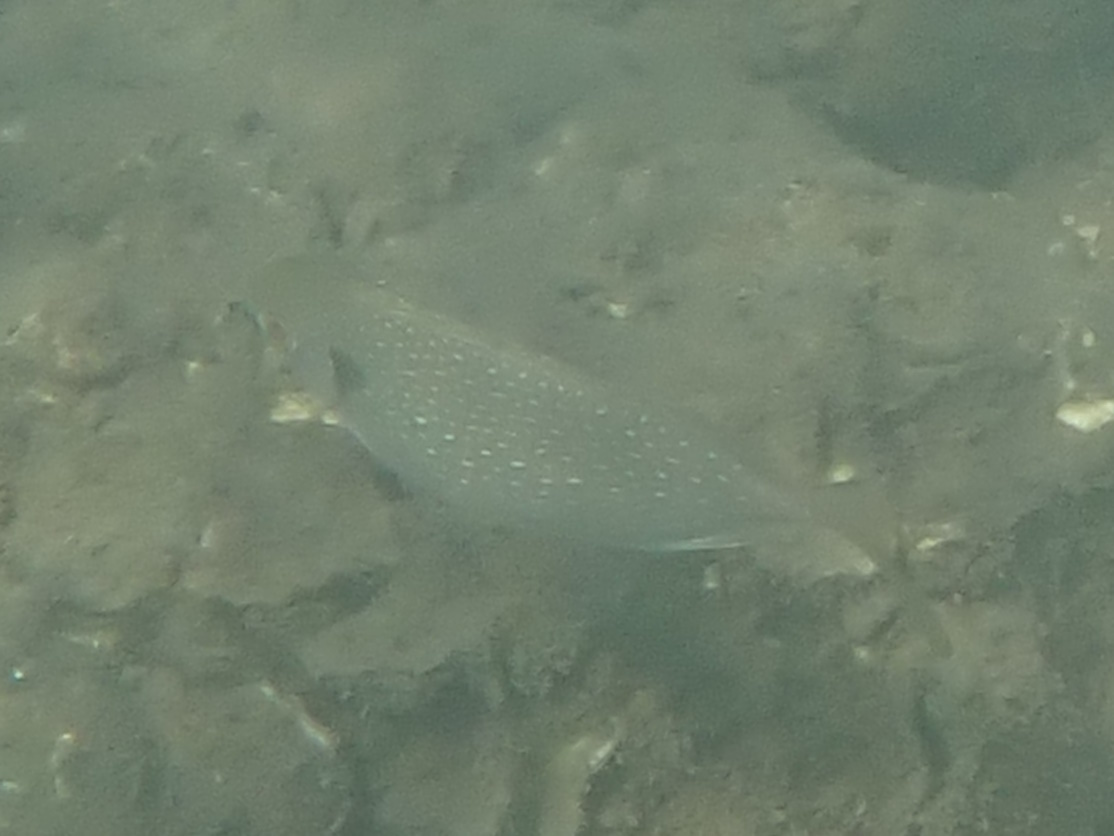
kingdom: Animalia
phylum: Chordata
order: Perciformes
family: Siganidae
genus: Siganus
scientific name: Siganus fuscescens
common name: Dusky rabbitfish
